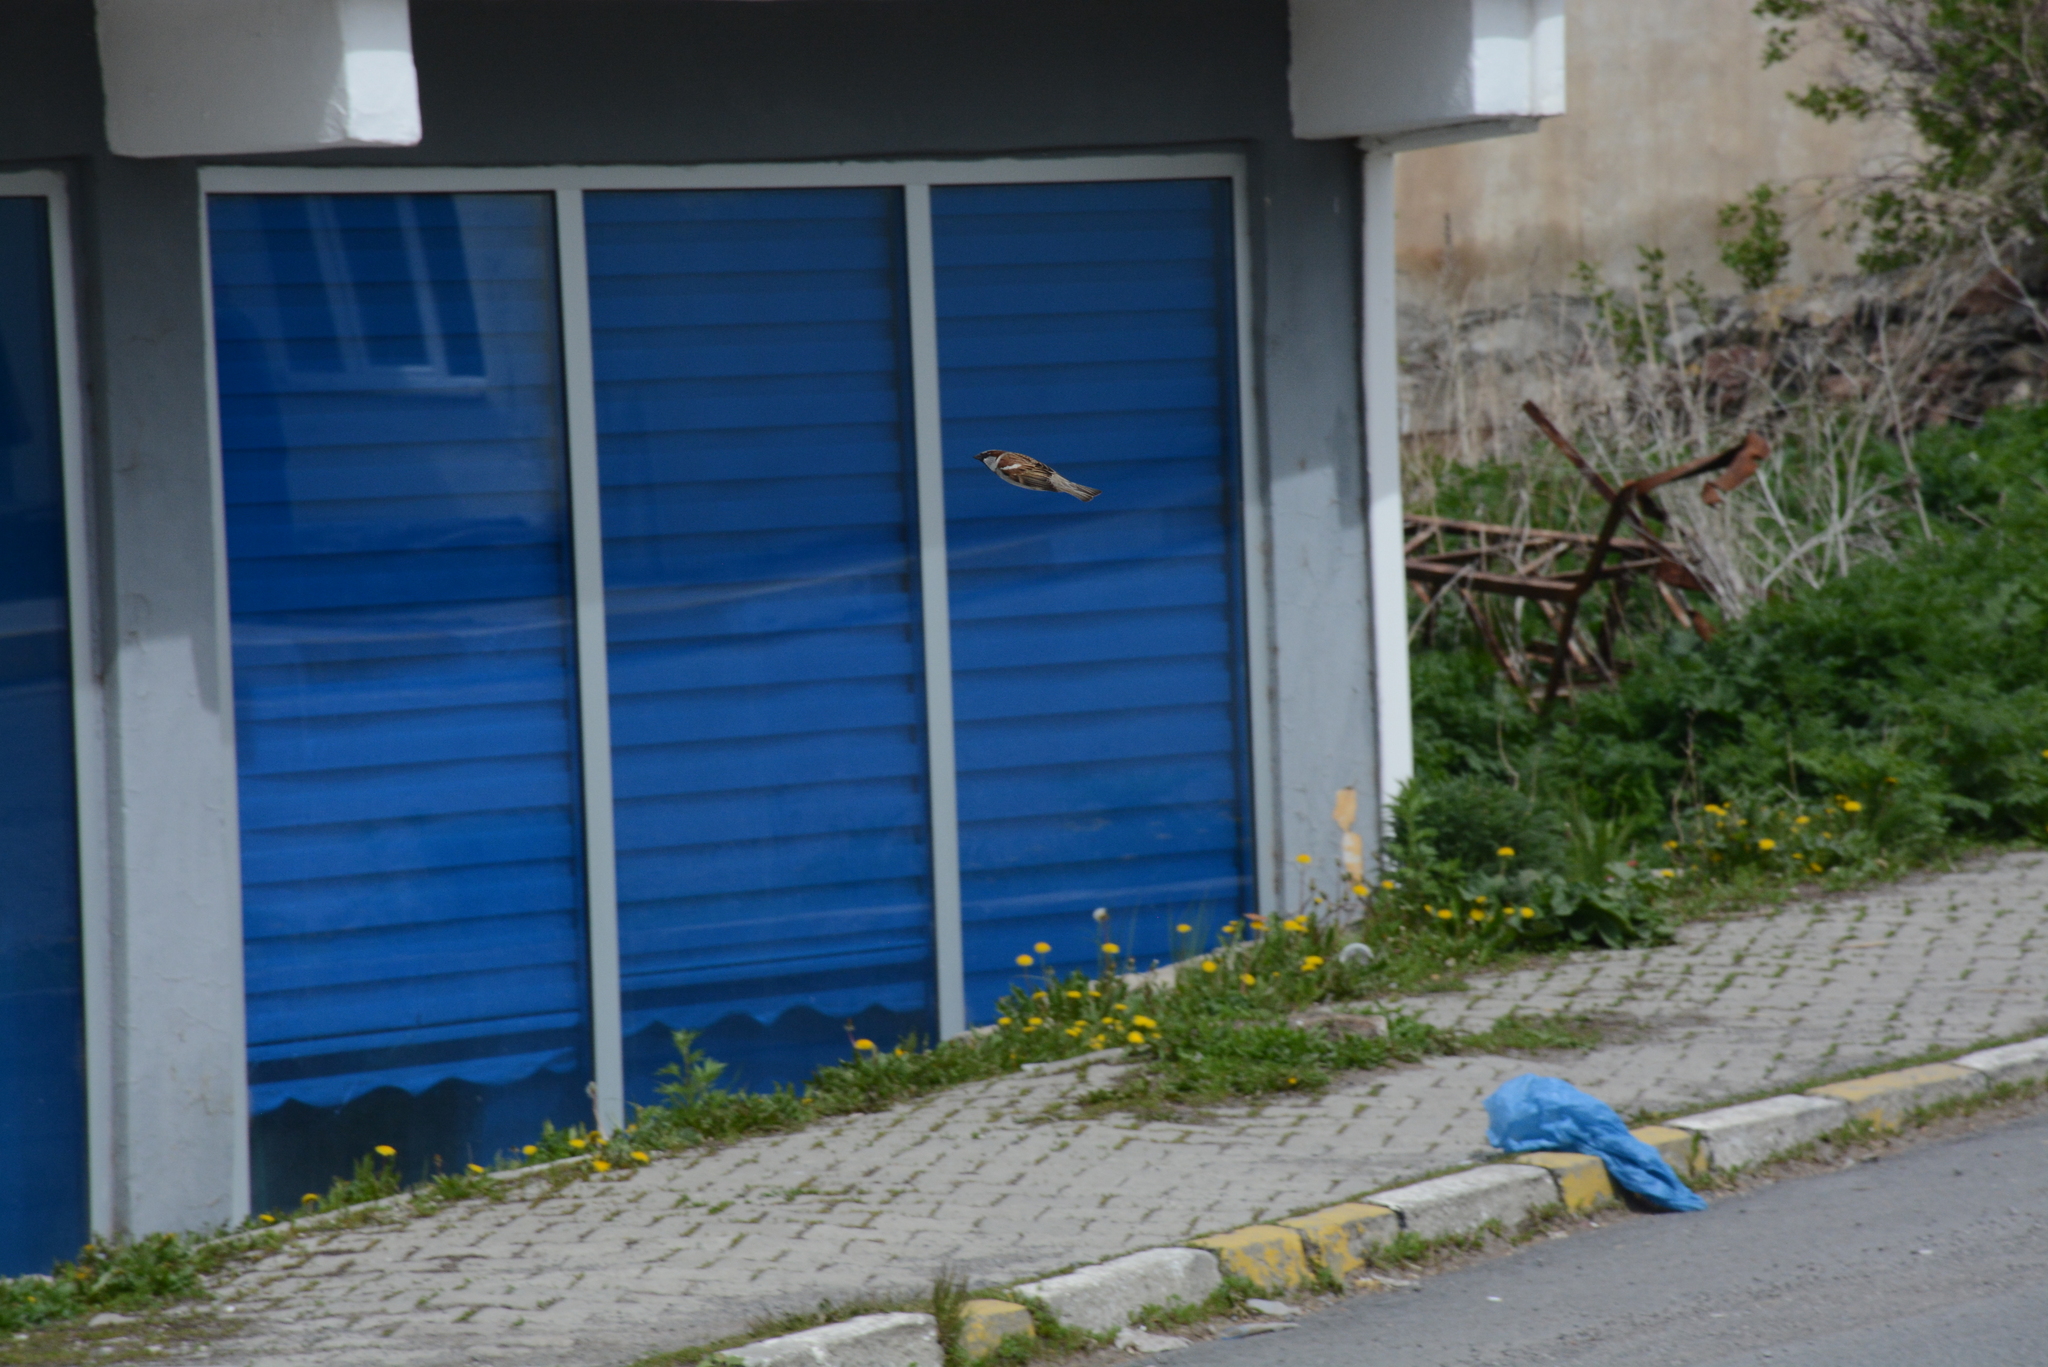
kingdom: Animalia
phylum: Chordata
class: Aves
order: Passeriformes
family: Passeridae
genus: Passer
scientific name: Passer domesticus
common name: House sparrow
